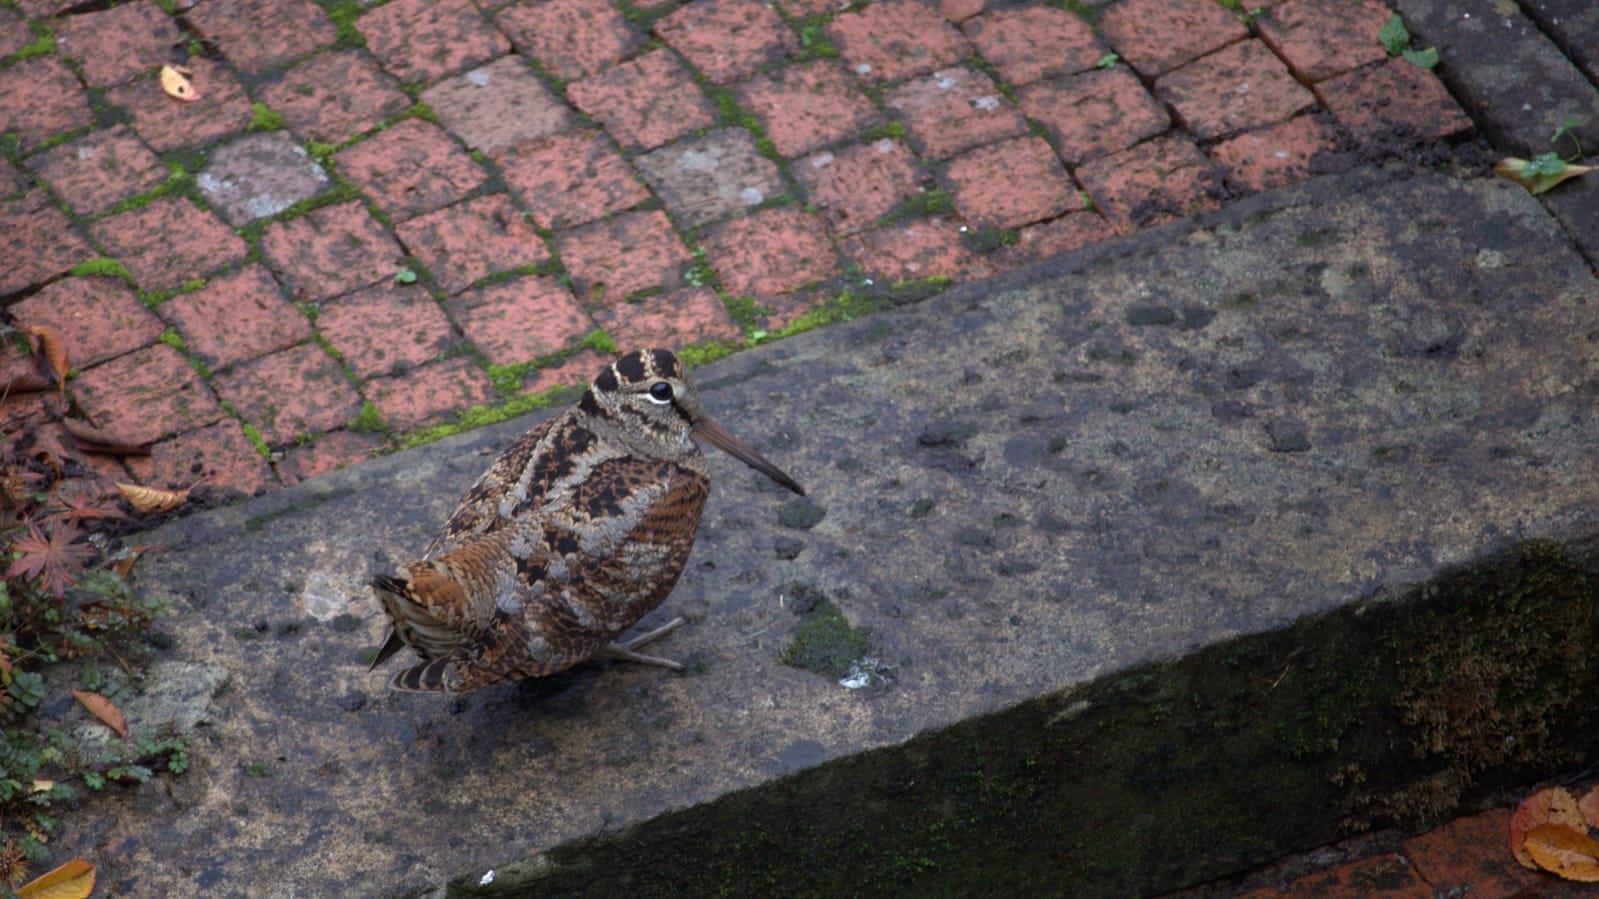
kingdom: Animalia
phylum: Chordata
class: Aves
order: Charadriiformes
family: Scolopacidae
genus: Scolopax
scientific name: Scolopax rusticola
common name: Eurasian woodcock
